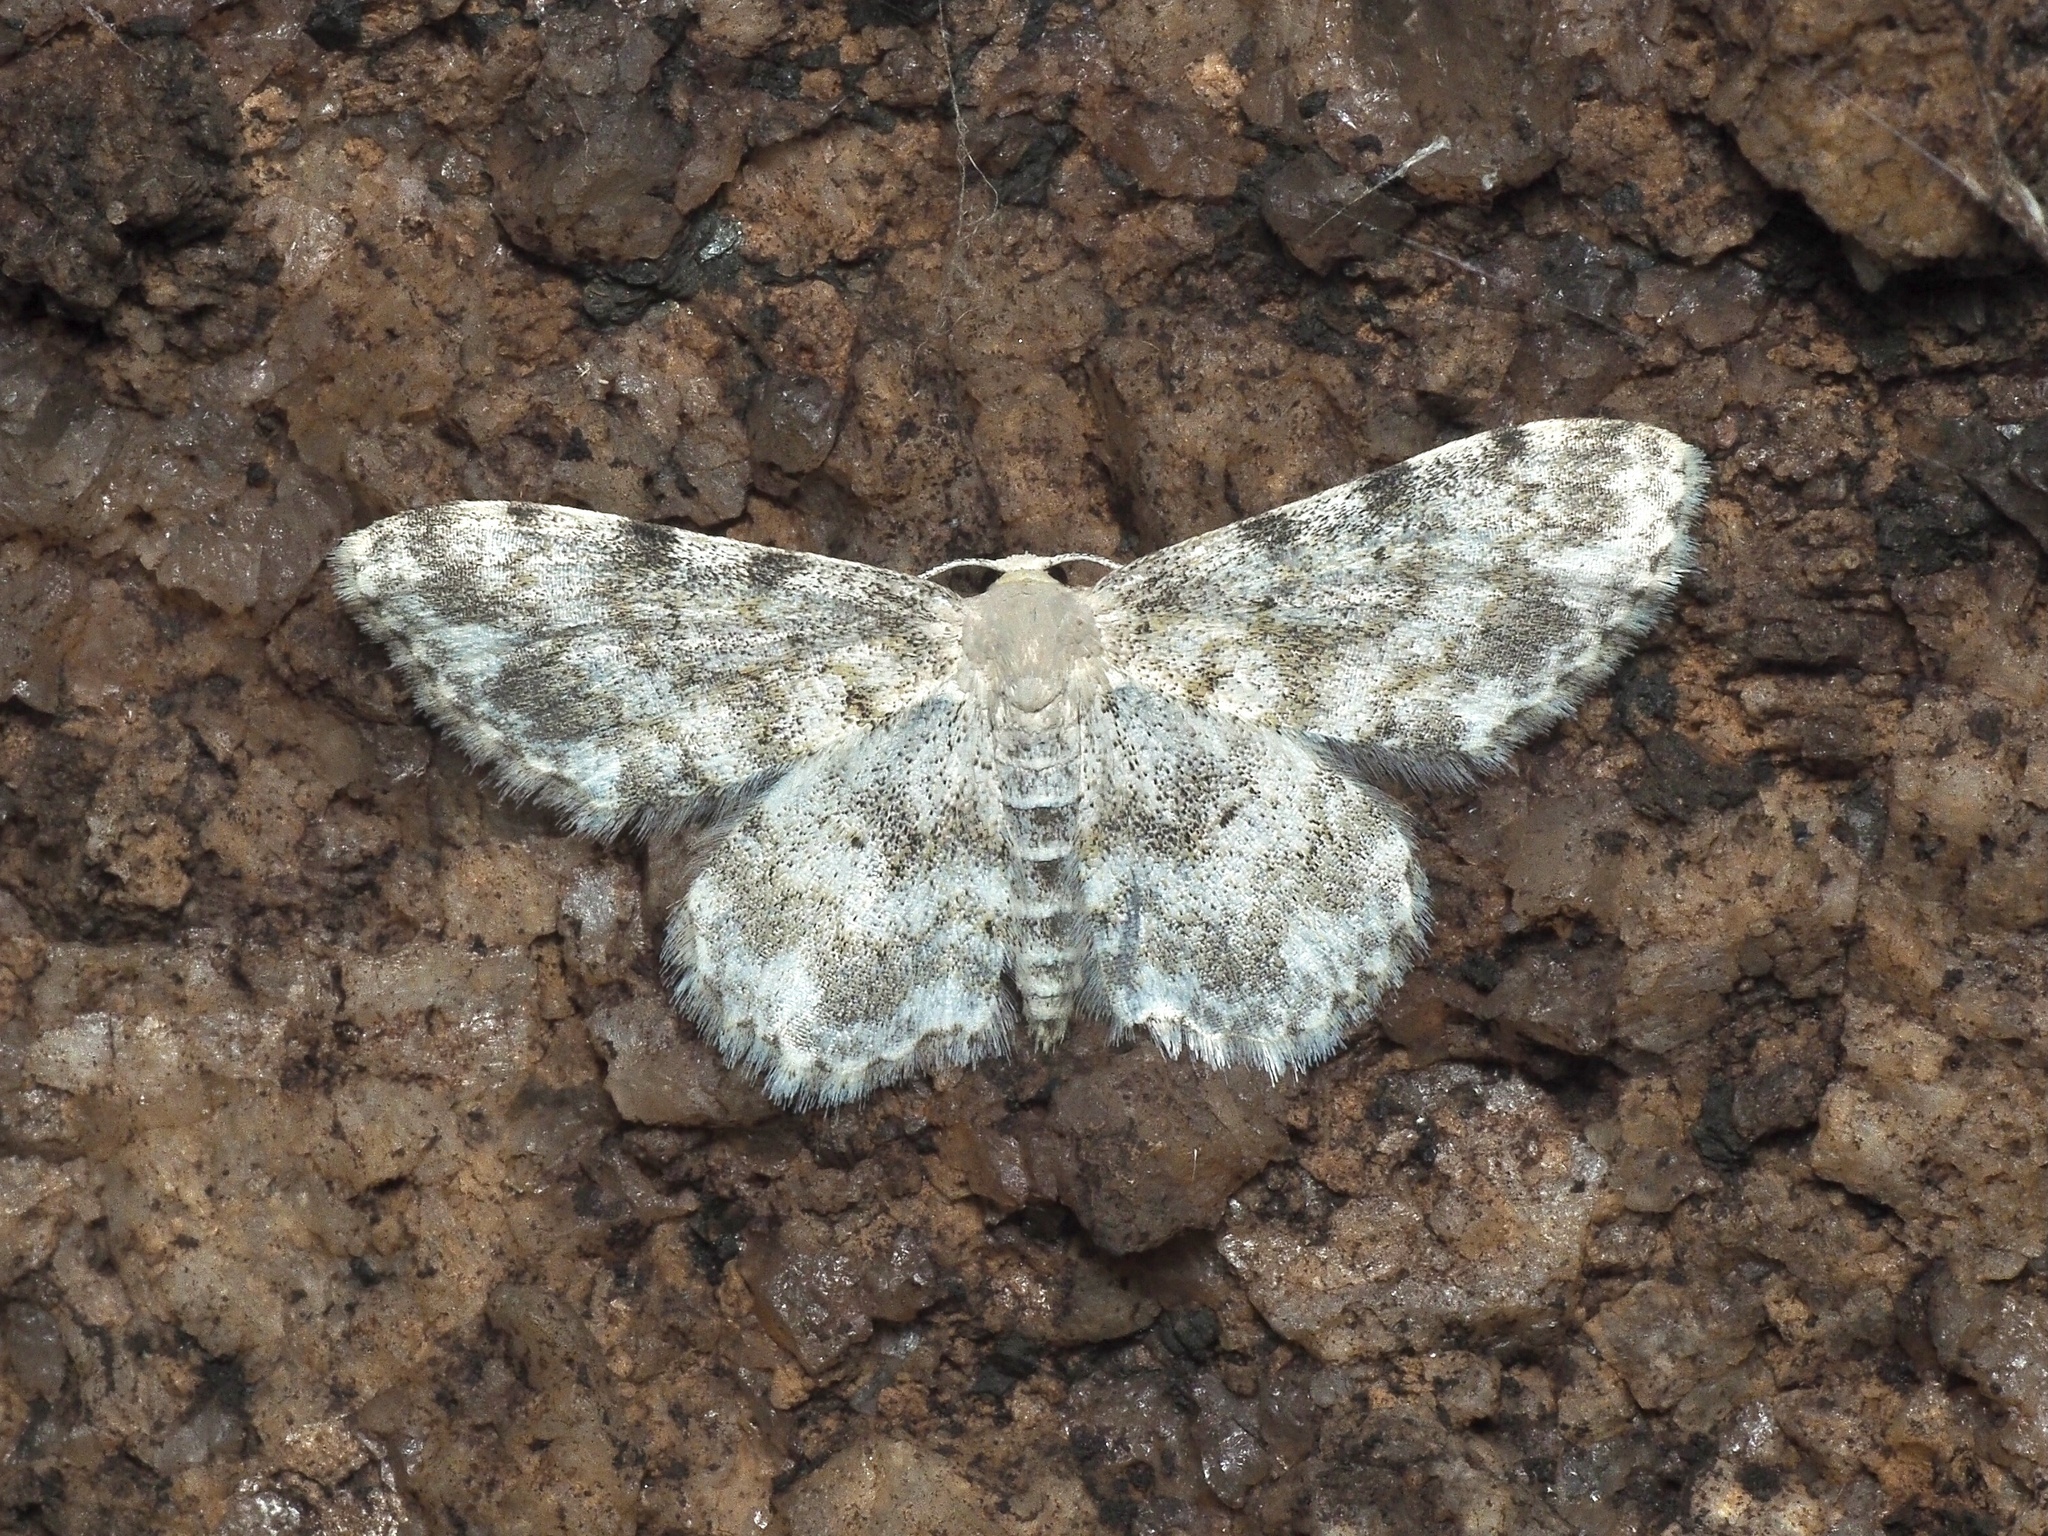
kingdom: Animalia
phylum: Arthropoda
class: Insecta
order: Lepidoptera
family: Geometridae
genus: Scopula
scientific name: Scopula nigrinotata
